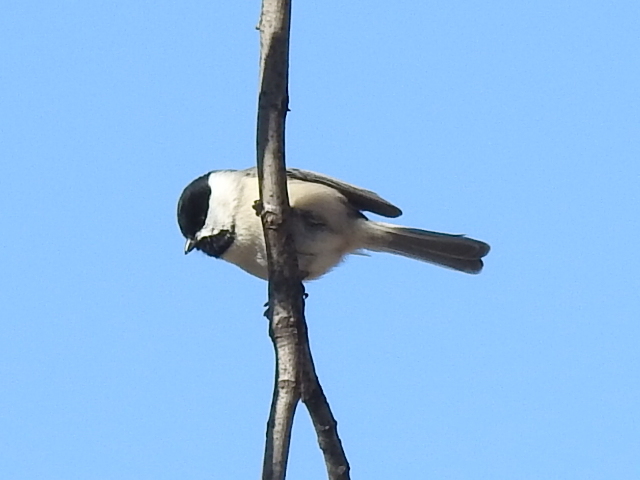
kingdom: Animalia
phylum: Chordata
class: Aves
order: Passeriformes
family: Paridae
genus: Poecile
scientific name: Poecile carolinensis
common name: Carolina chickadee
